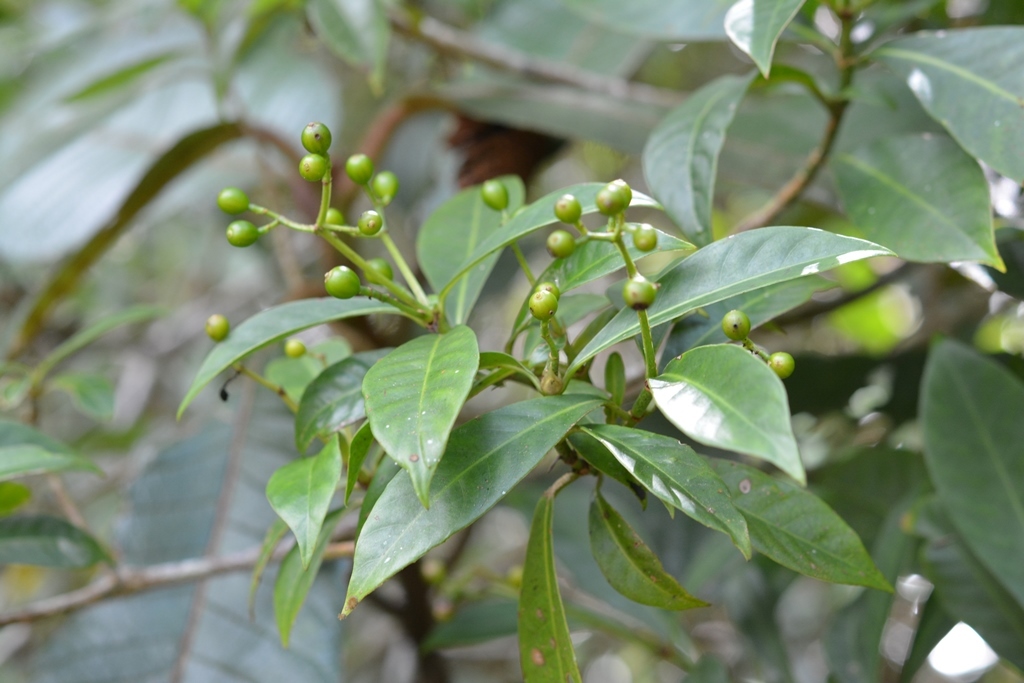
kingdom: Plantae
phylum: Tracheophyta
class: Magnoliopsida
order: Gentianales
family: Rubiaceae
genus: Psychotria
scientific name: Psychotria costivenia
